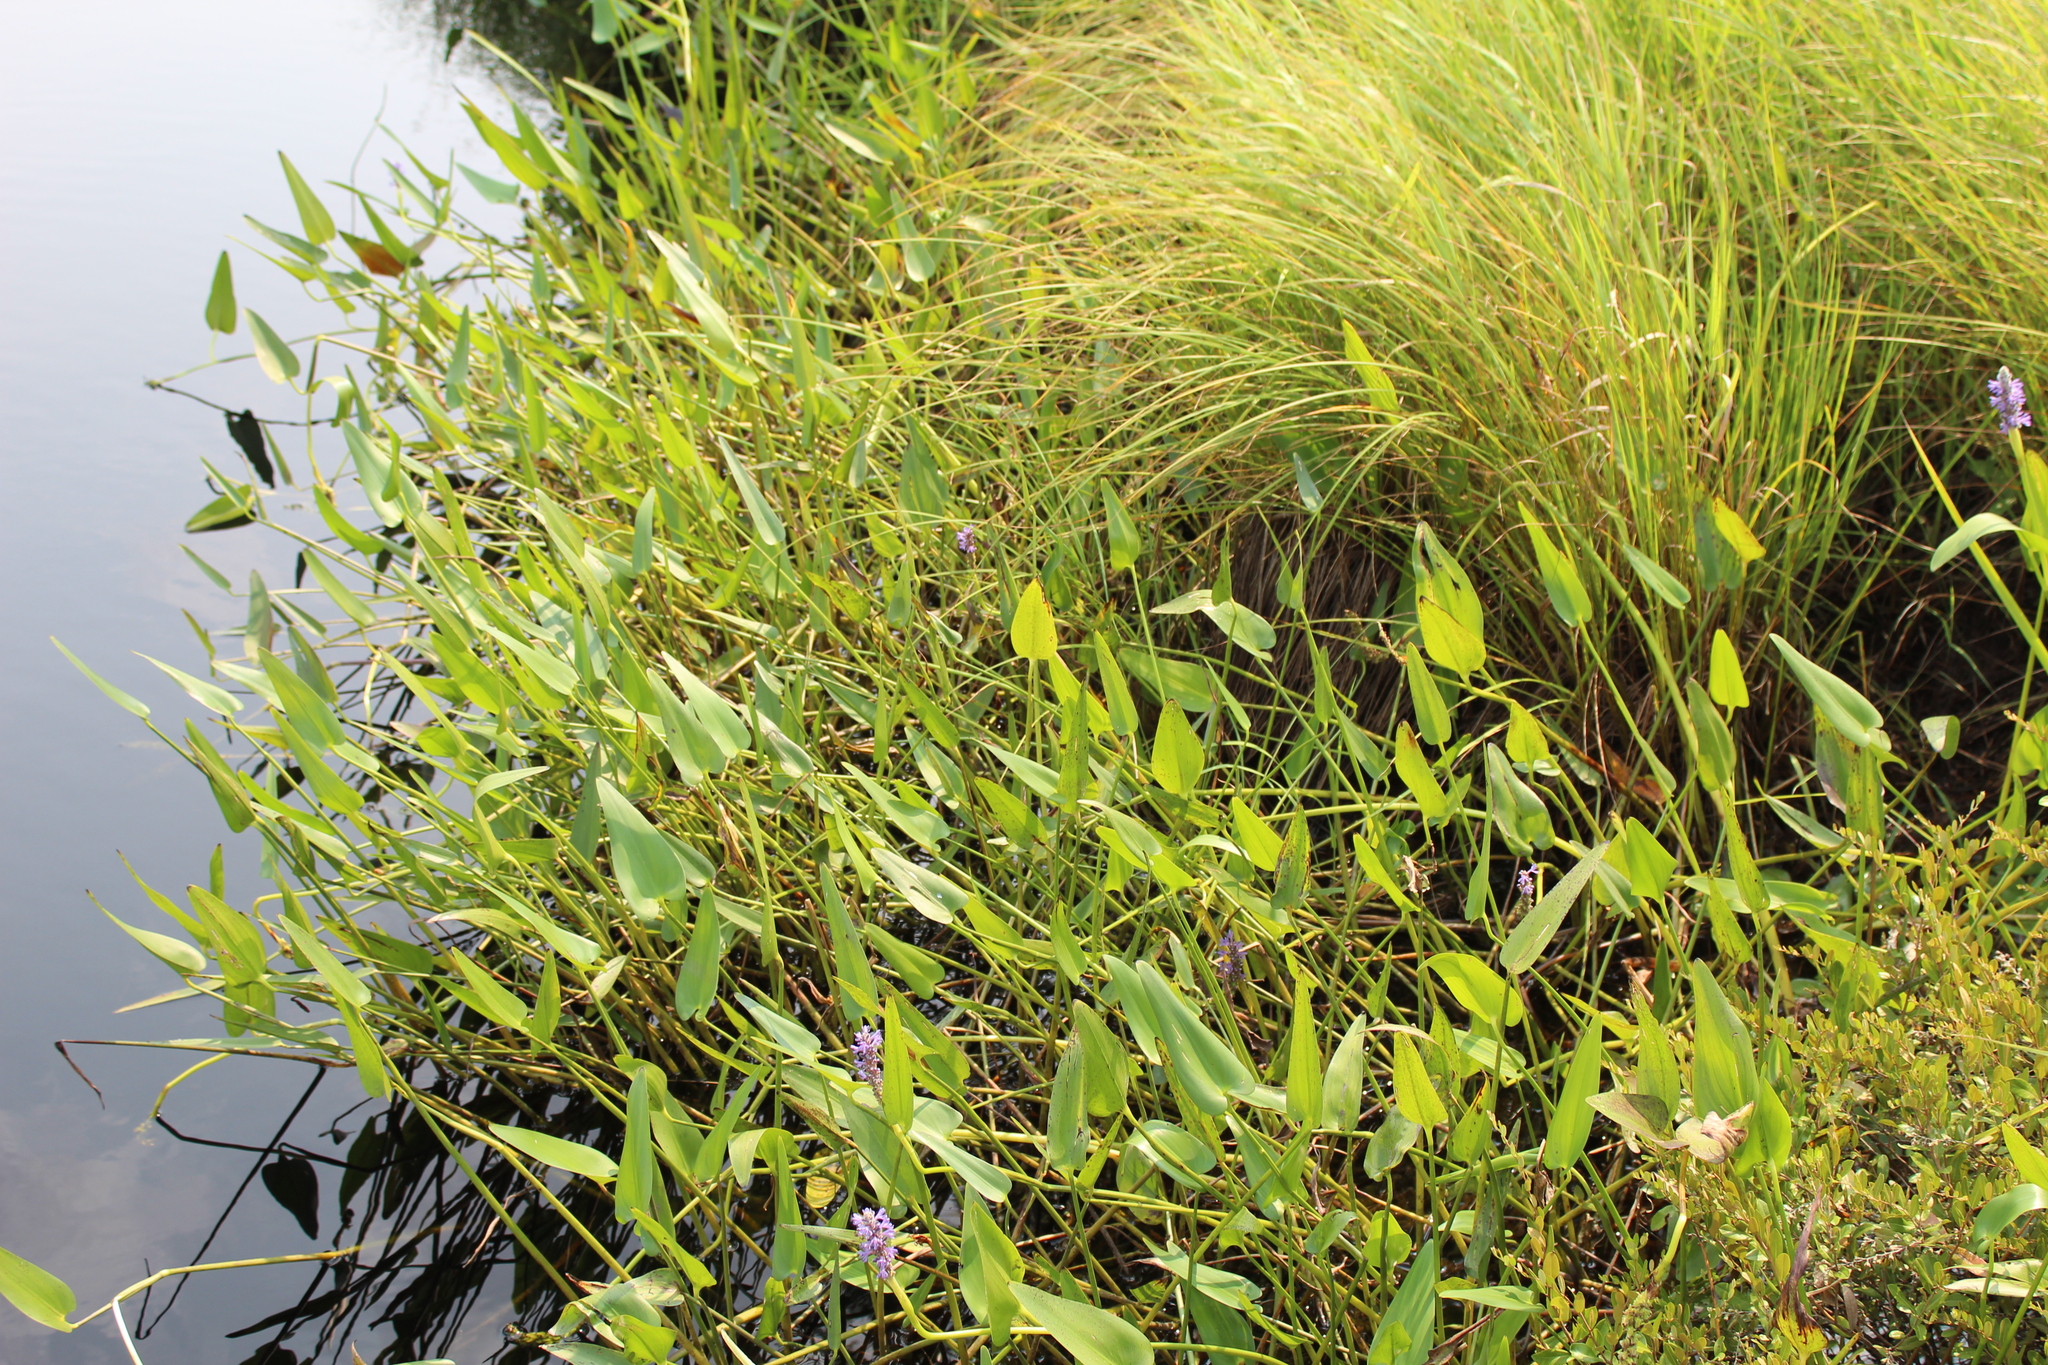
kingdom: Plantae
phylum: Tracheophyta
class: Liliopsida
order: Commelinales
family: Pontederiaceae
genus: Pontederia
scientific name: Pontederia cordata
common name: Pickerelweed
